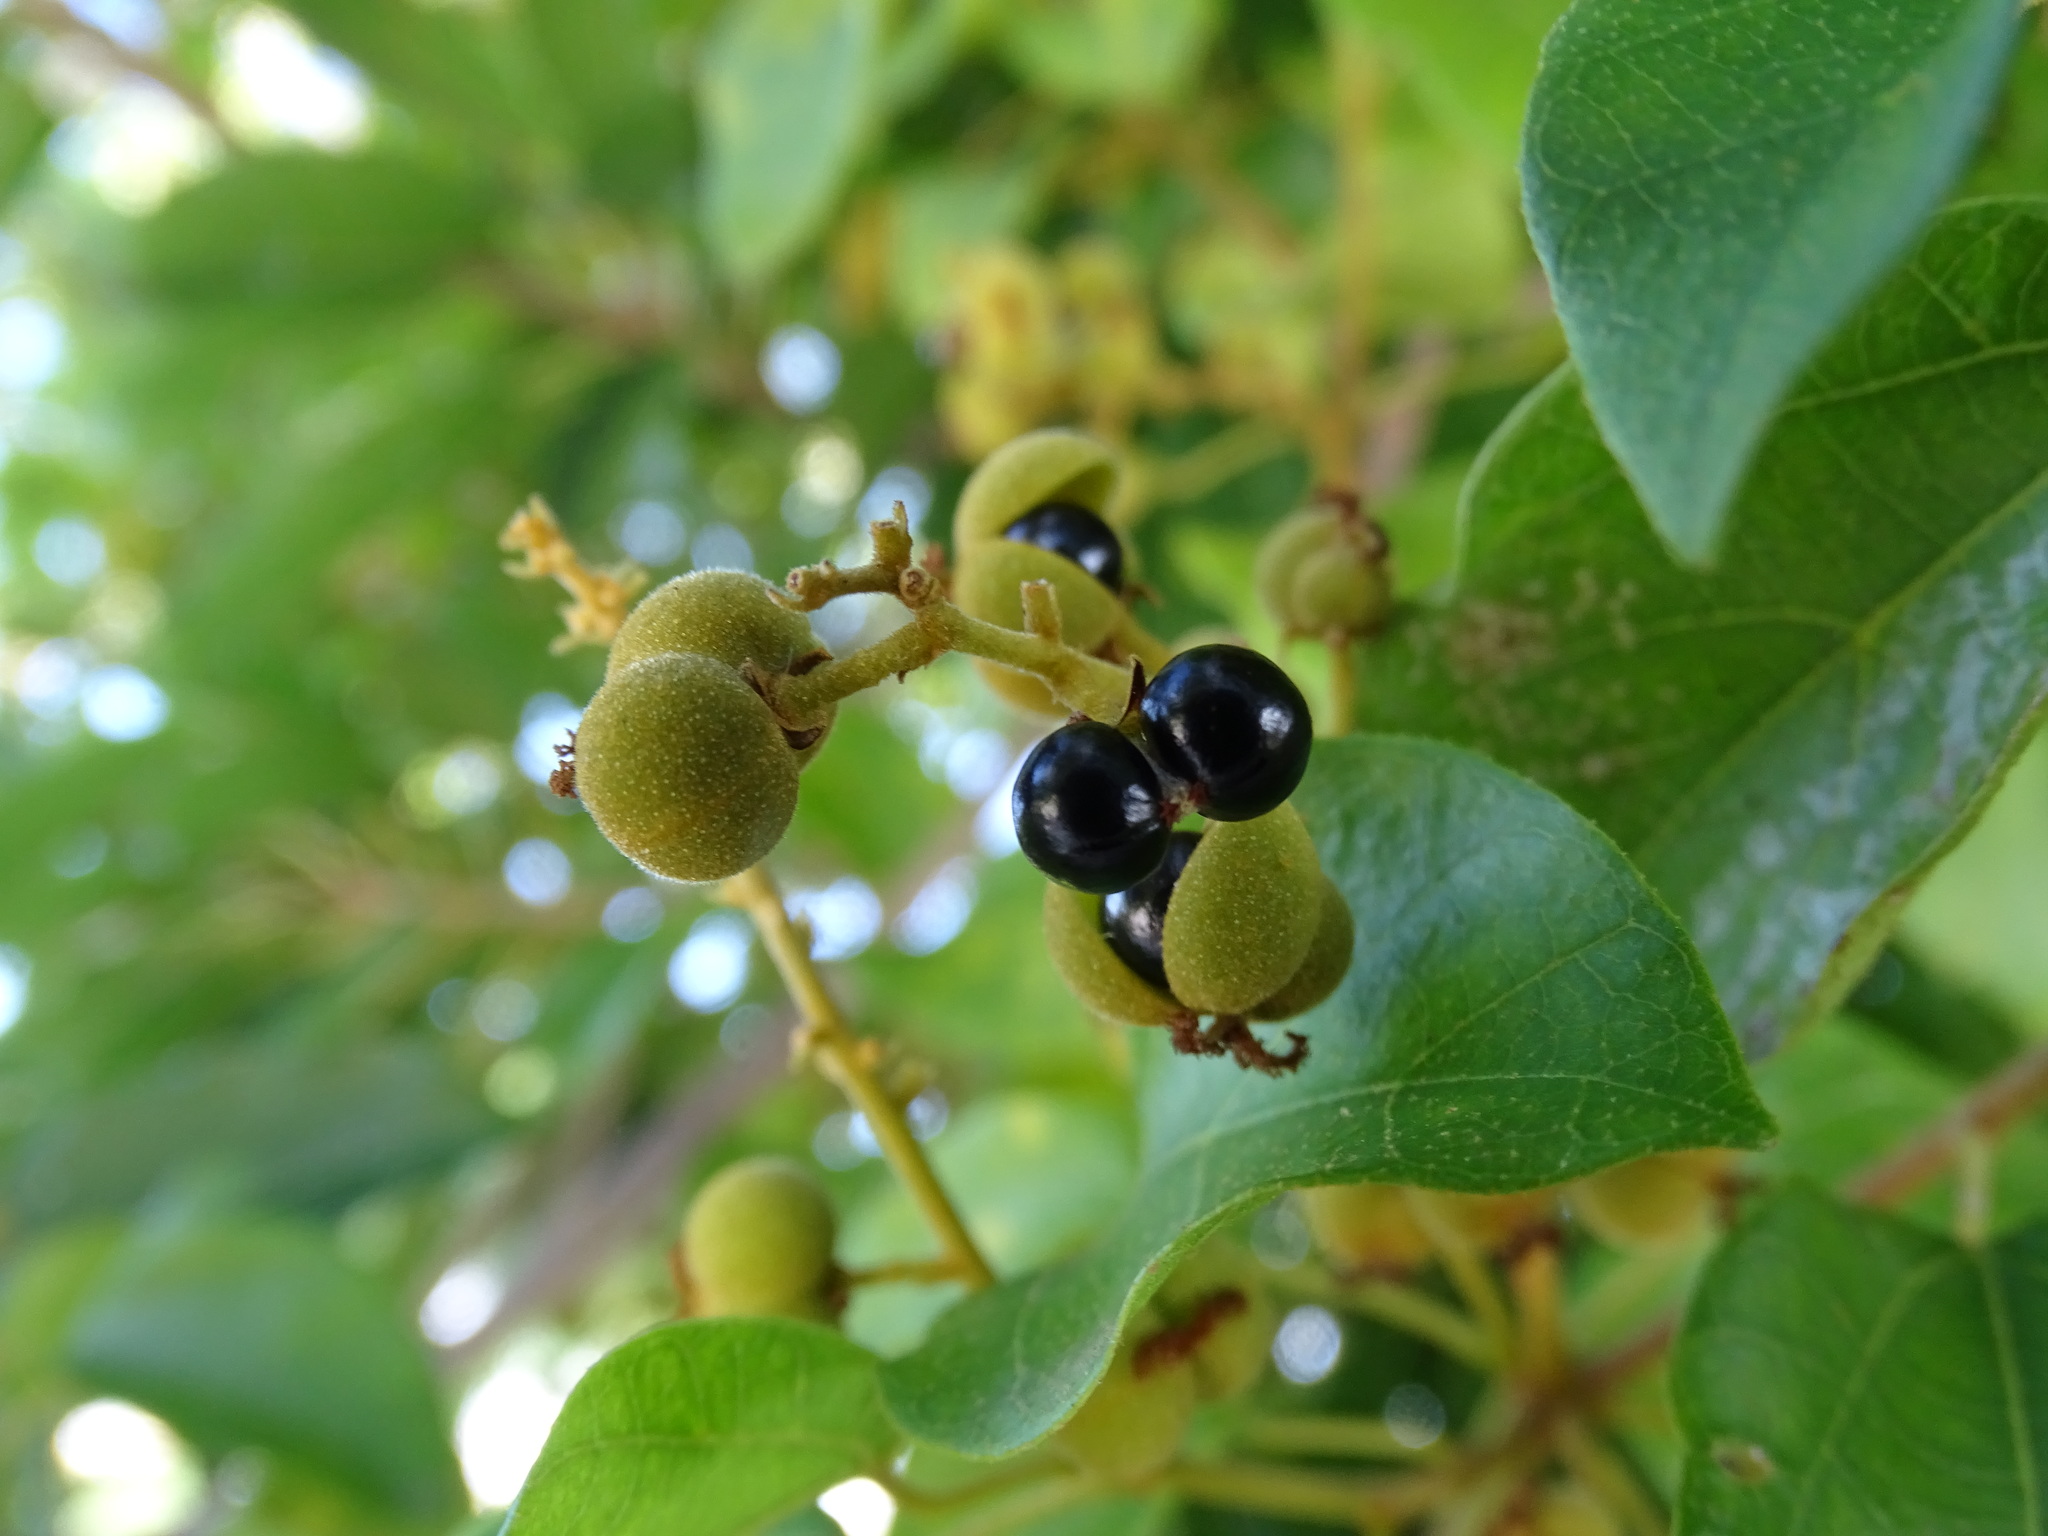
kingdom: Plantae
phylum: Tracheophyta
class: Magnoliopsida
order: Malpighiales
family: Euphorbiaceae
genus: Mallotus
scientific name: Mallotus repandus
